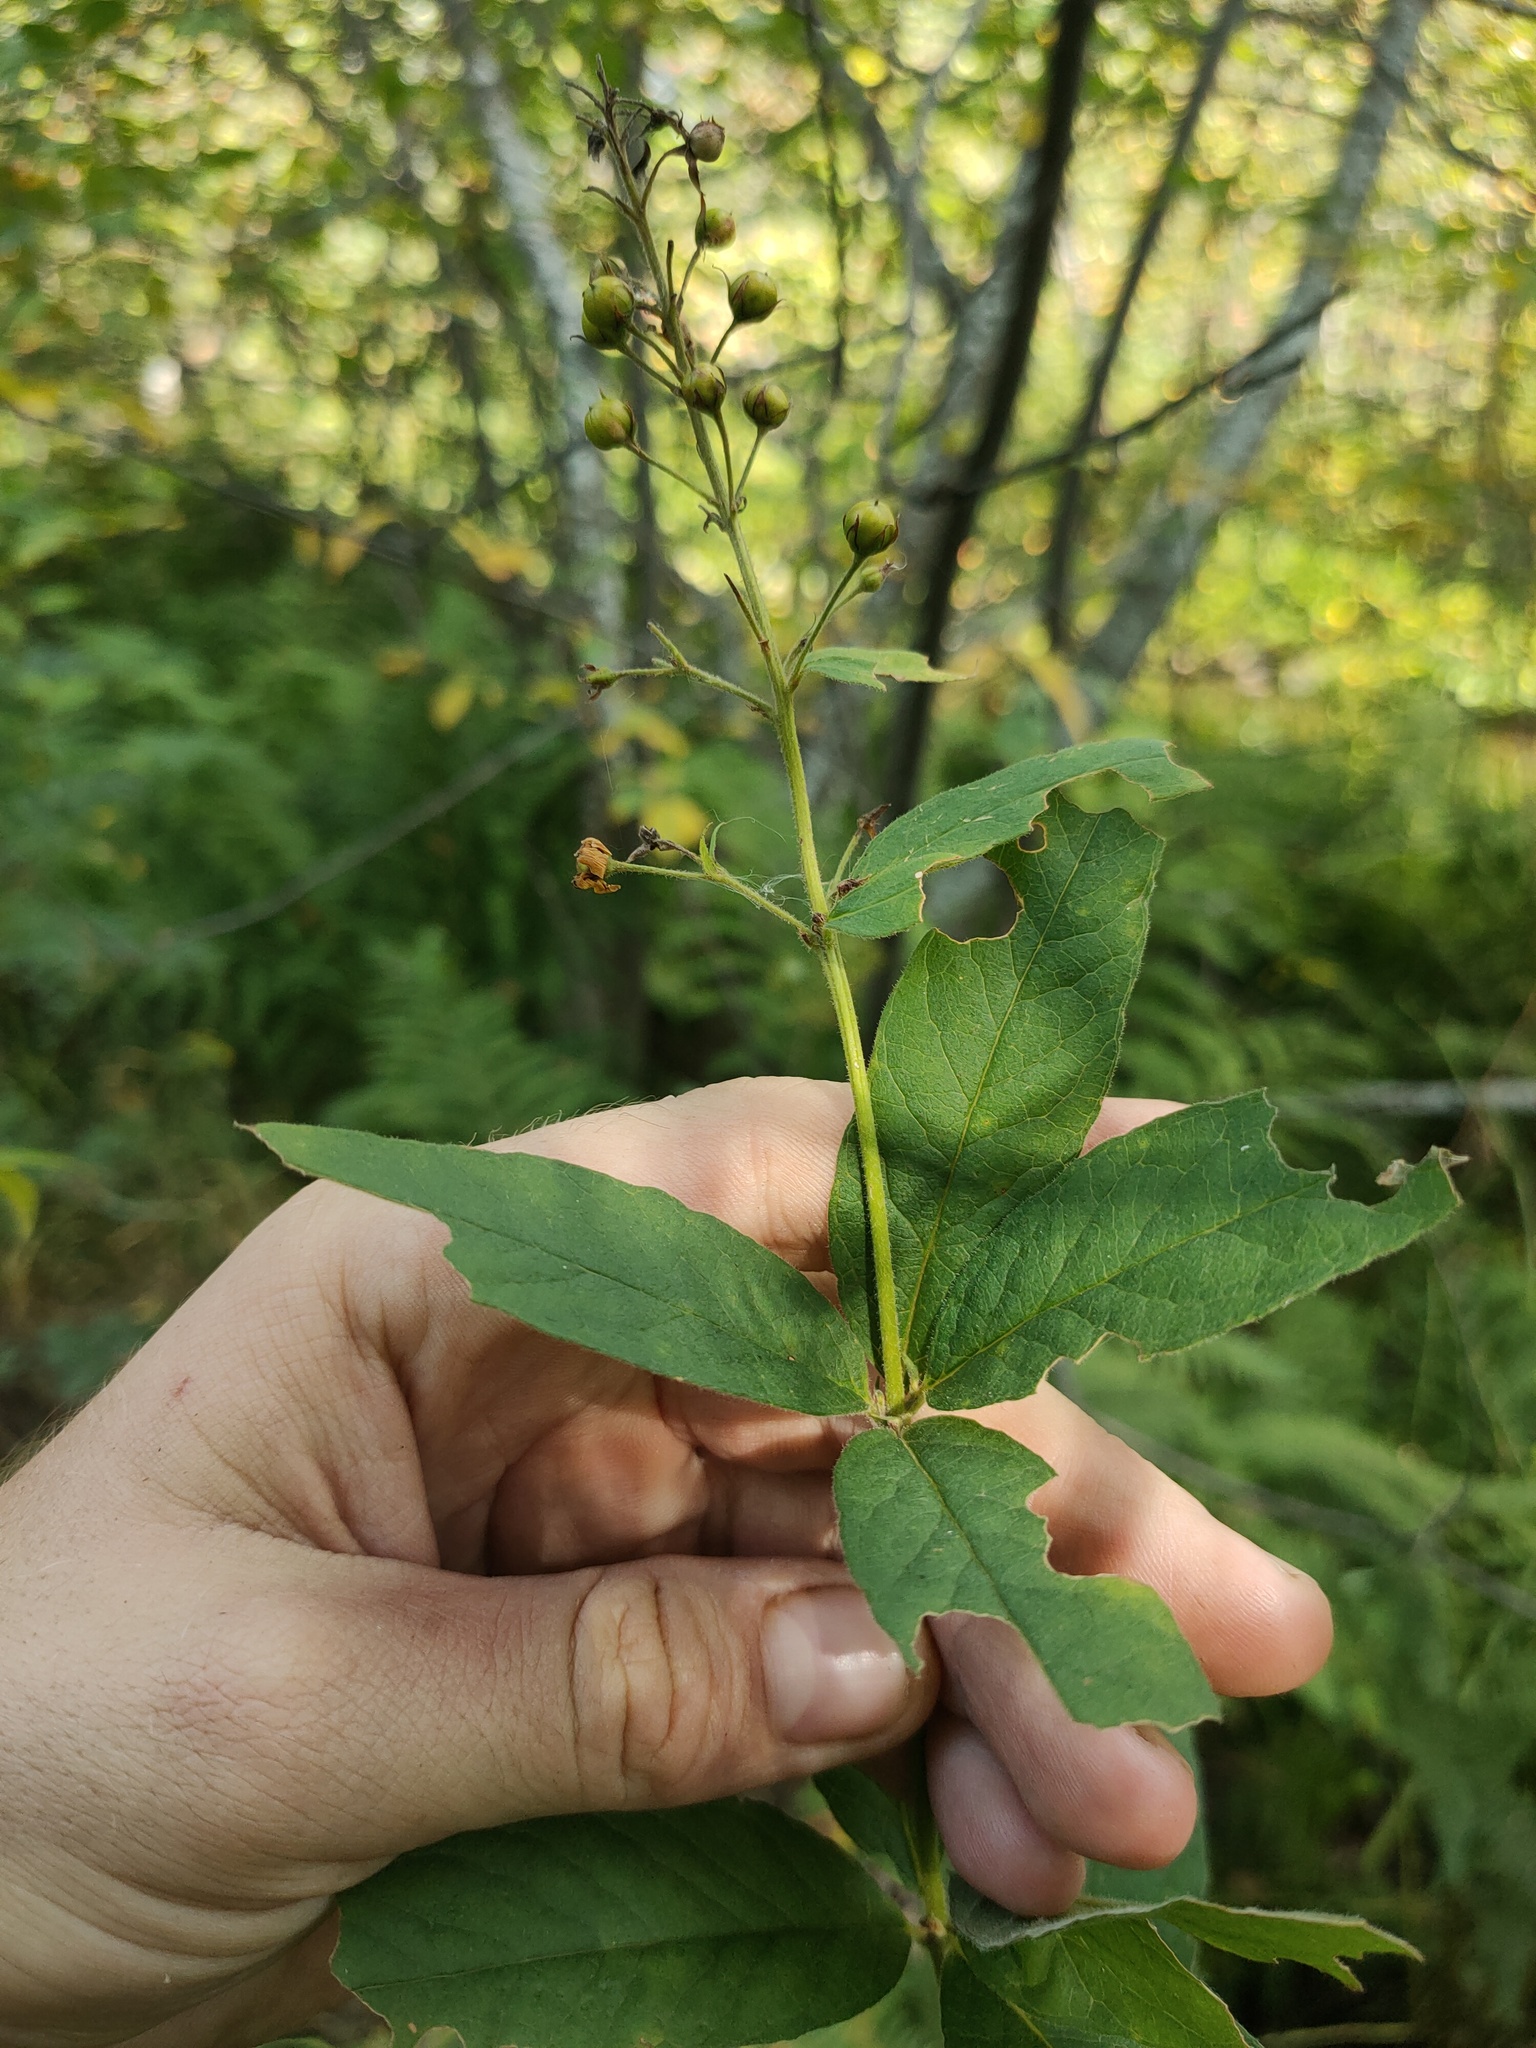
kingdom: Plantae
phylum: Tracheophyta
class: Magnoliopsida
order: Ericales
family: Primulaceae
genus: Lysimachia
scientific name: Lysimachia vulgaris
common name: Yellow loosestrife
